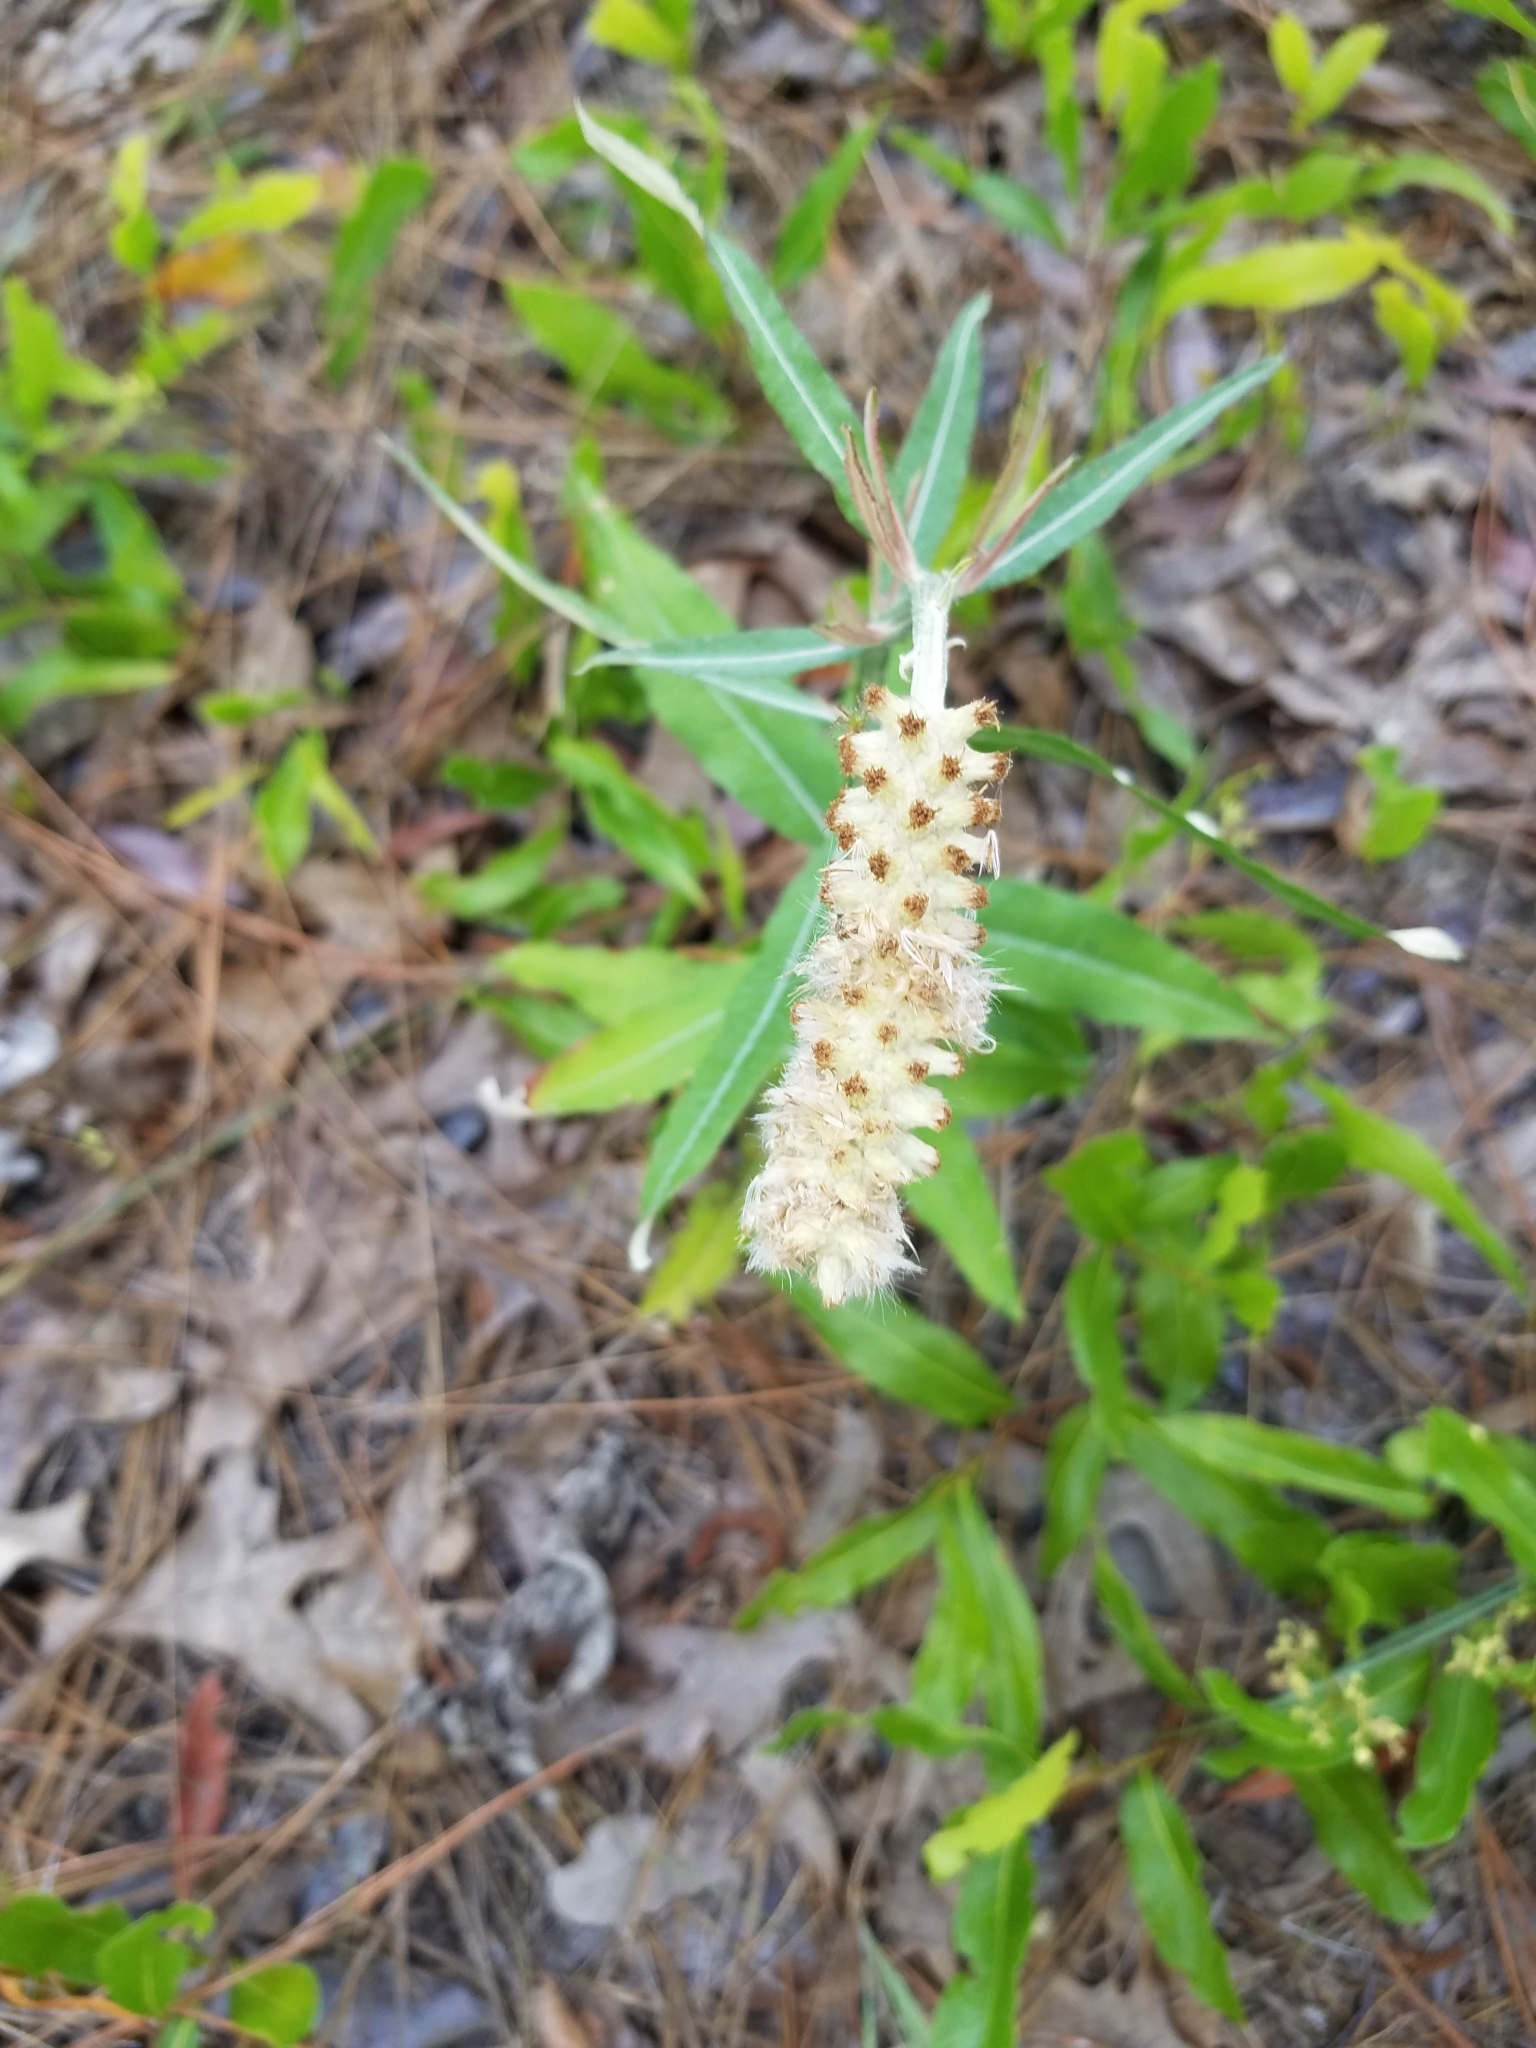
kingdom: Plantae
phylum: Tracheophyta
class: Magnoliopsida
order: Asterales
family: Asteraceae
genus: Pterocaulon
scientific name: Pterocaulon pycnostachyum
